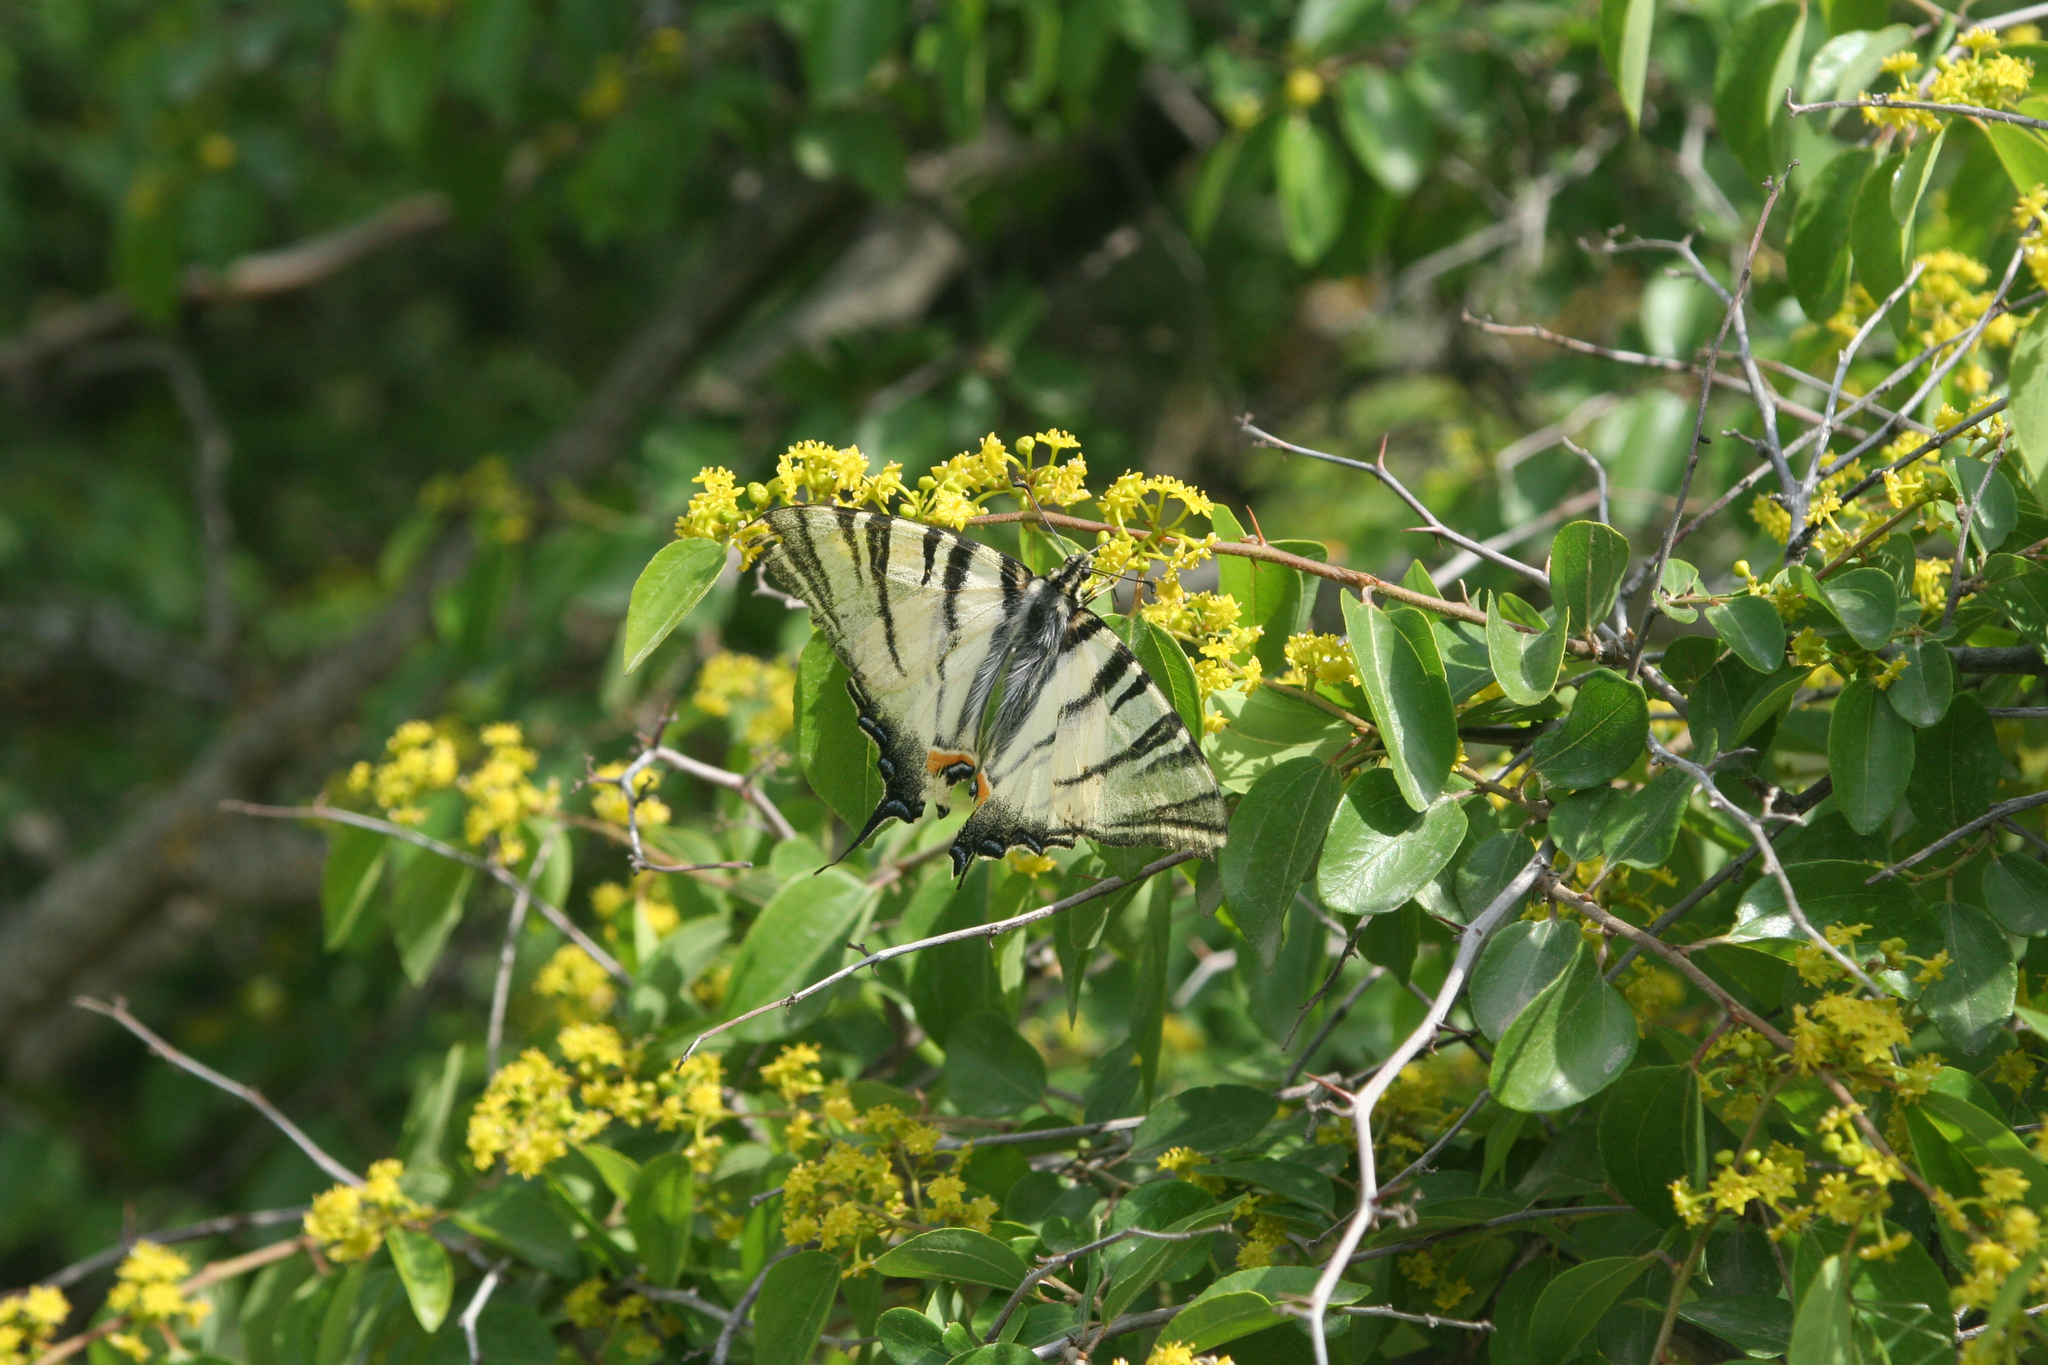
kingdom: Animalia
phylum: Arthropoda
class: Insecta
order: Lepidoptera
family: Papilionidae
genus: Iphiclides
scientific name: Iphiclides podalirius
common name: Scarce swallowtail
